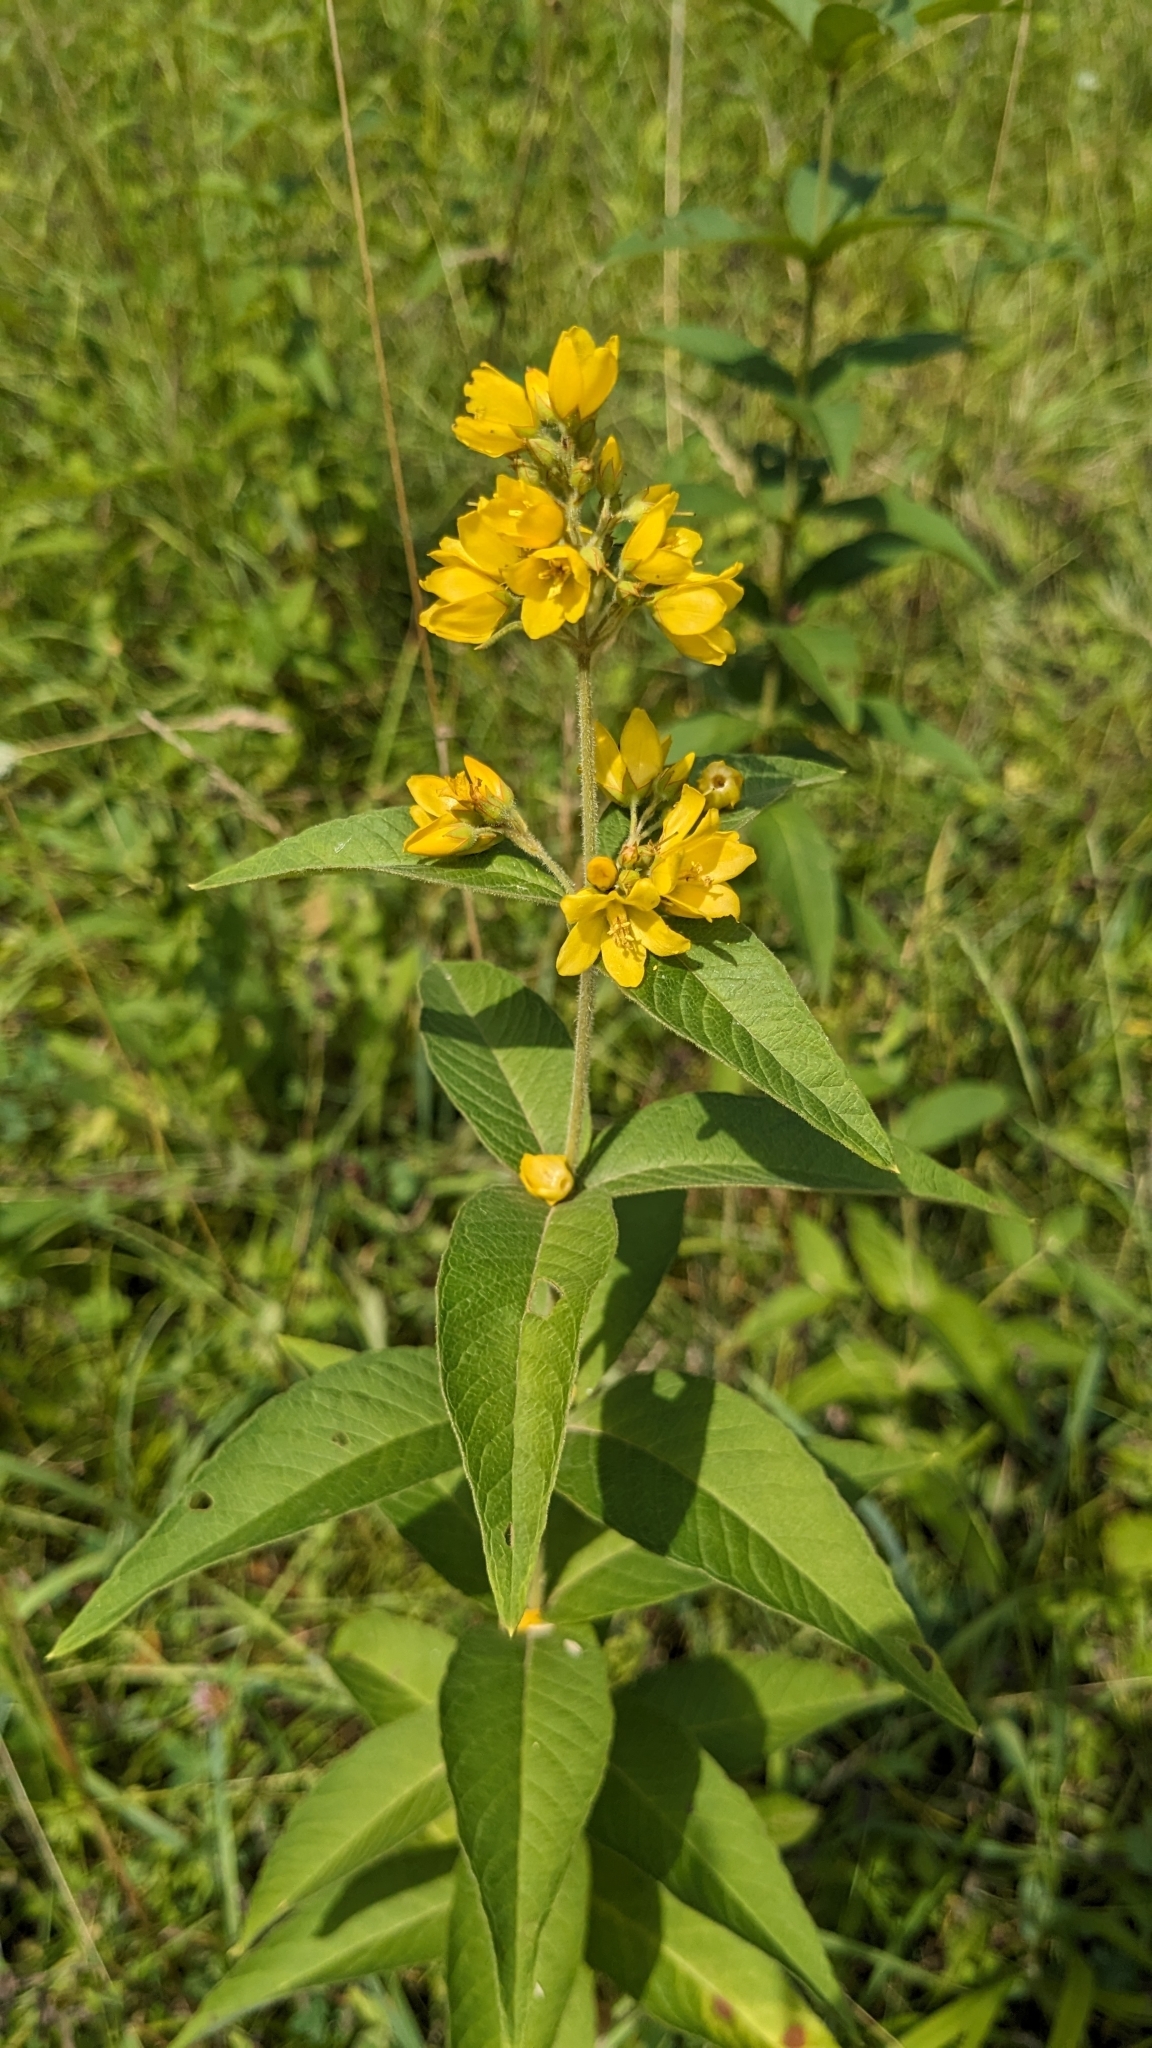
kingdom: Plantae
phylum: Tracheophyta
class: Magnoliopsida
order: Ericales
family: Primulaceae
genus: Lysimachia
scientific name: Lysimachia vulgaris
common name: Yellow loosestrife
